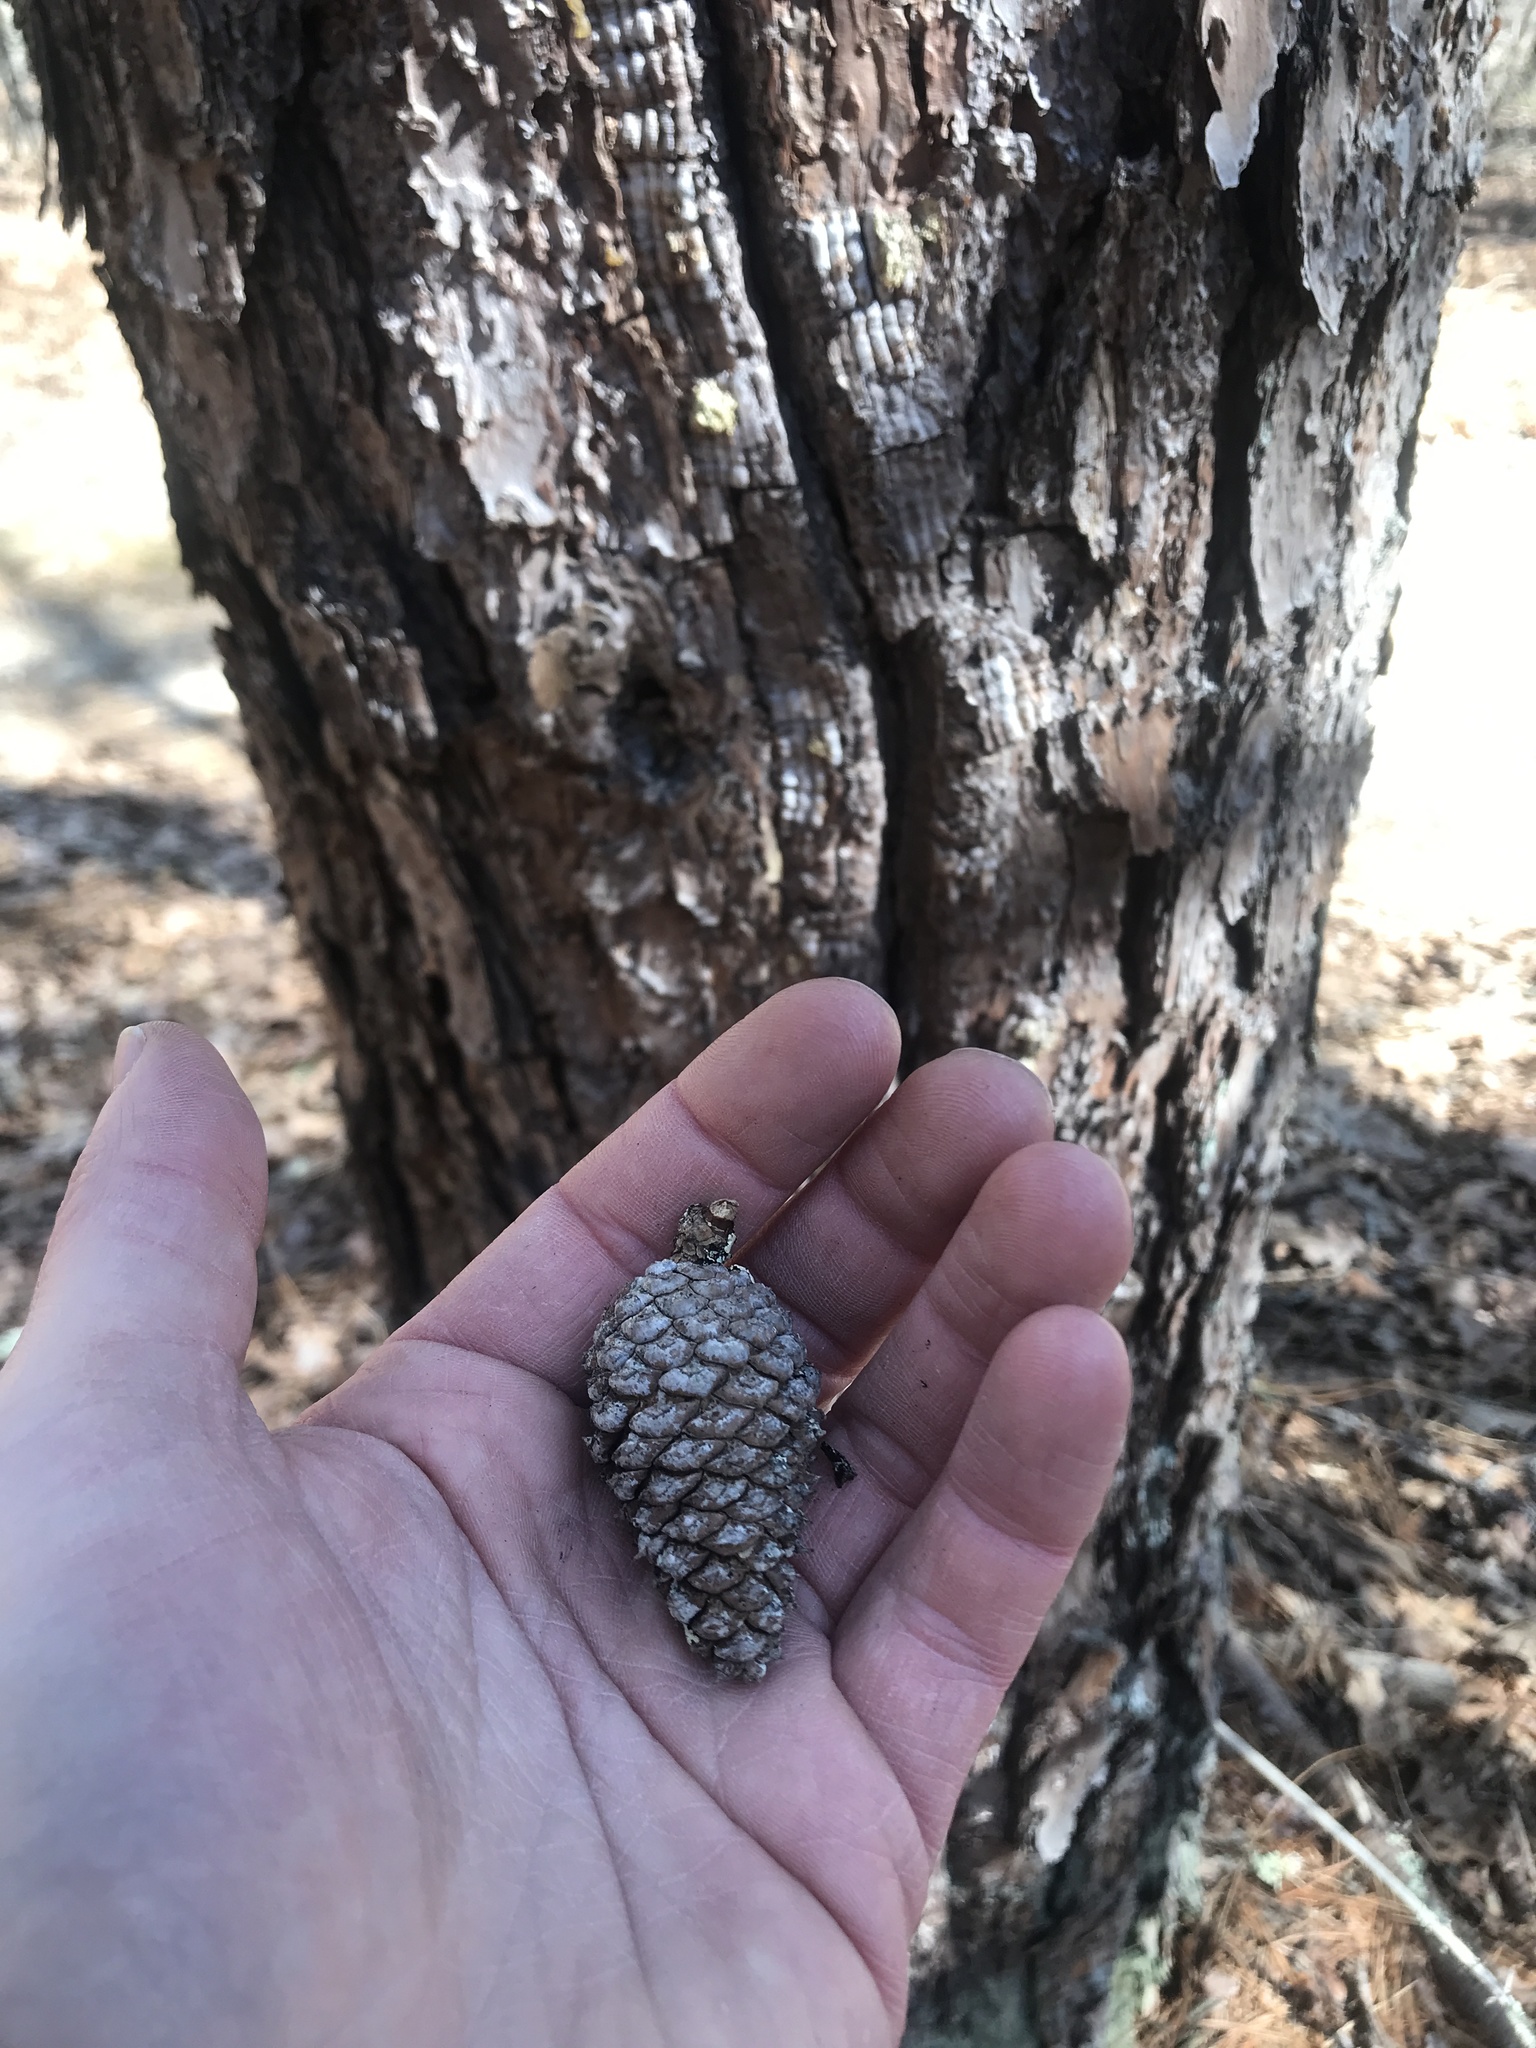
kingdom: Plantae
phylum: Tracheophyta
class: Pinopsida
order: Pinales
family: Pinaceae
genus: Pinus
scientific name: Pinus rigida
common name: Pitch pine
